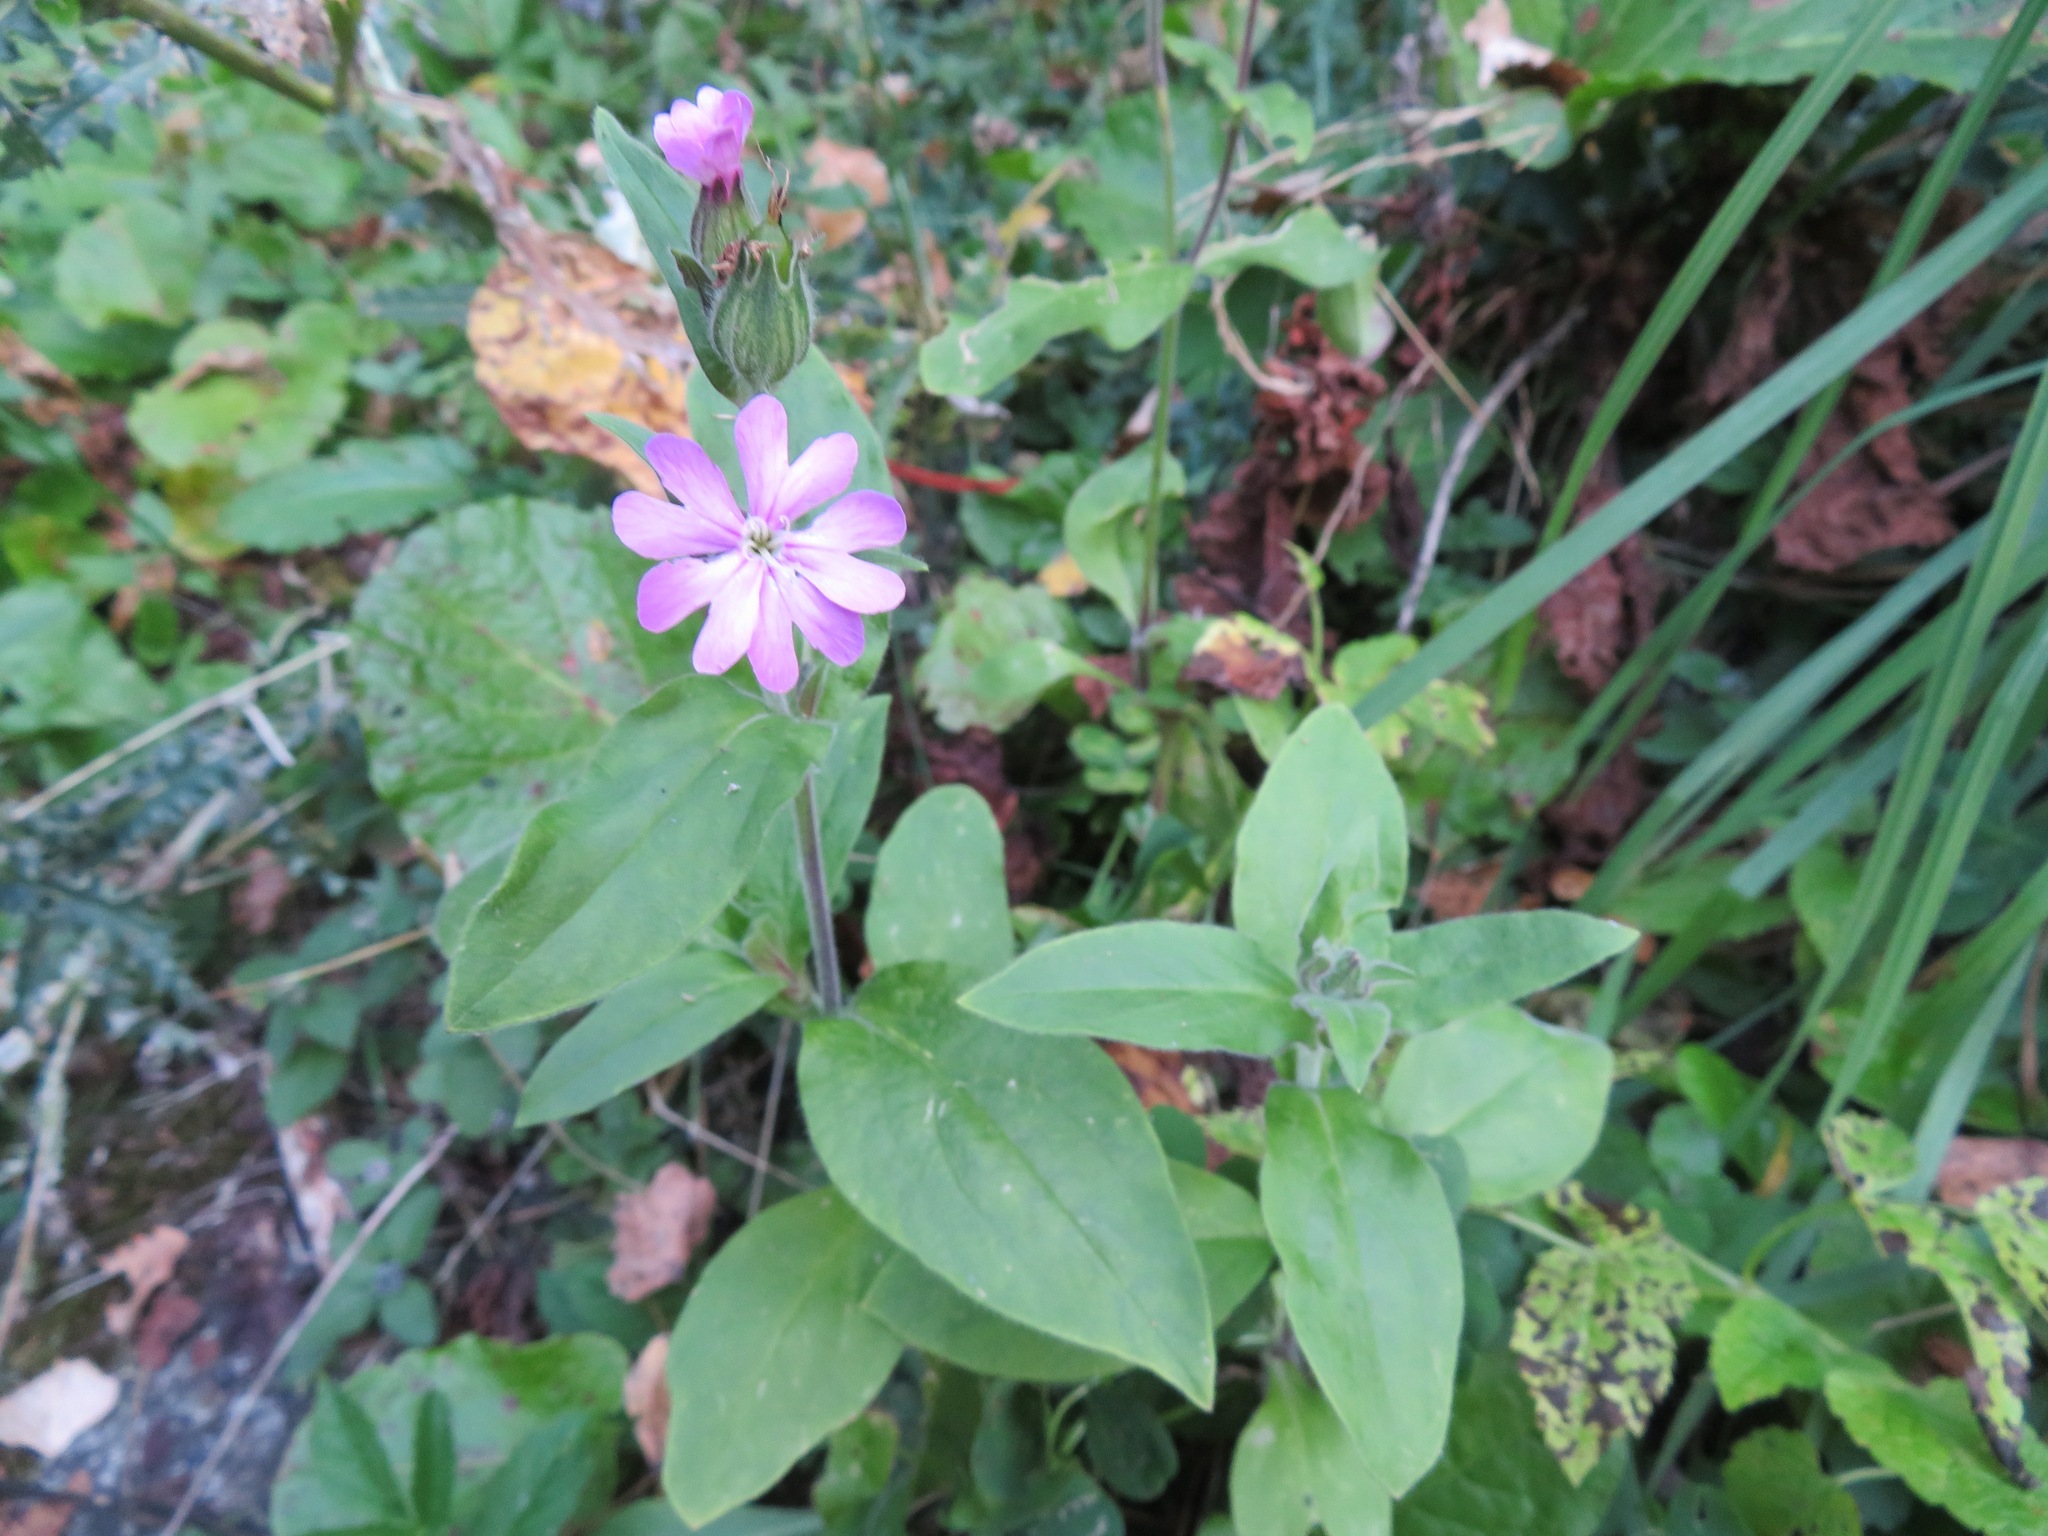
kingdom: Plantae
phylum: Tracheophyta
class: Magnoliopsida
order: Caryophyllales
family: Caryophyllaceae
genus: Silene
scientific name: Silene dioica
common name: Red campion
